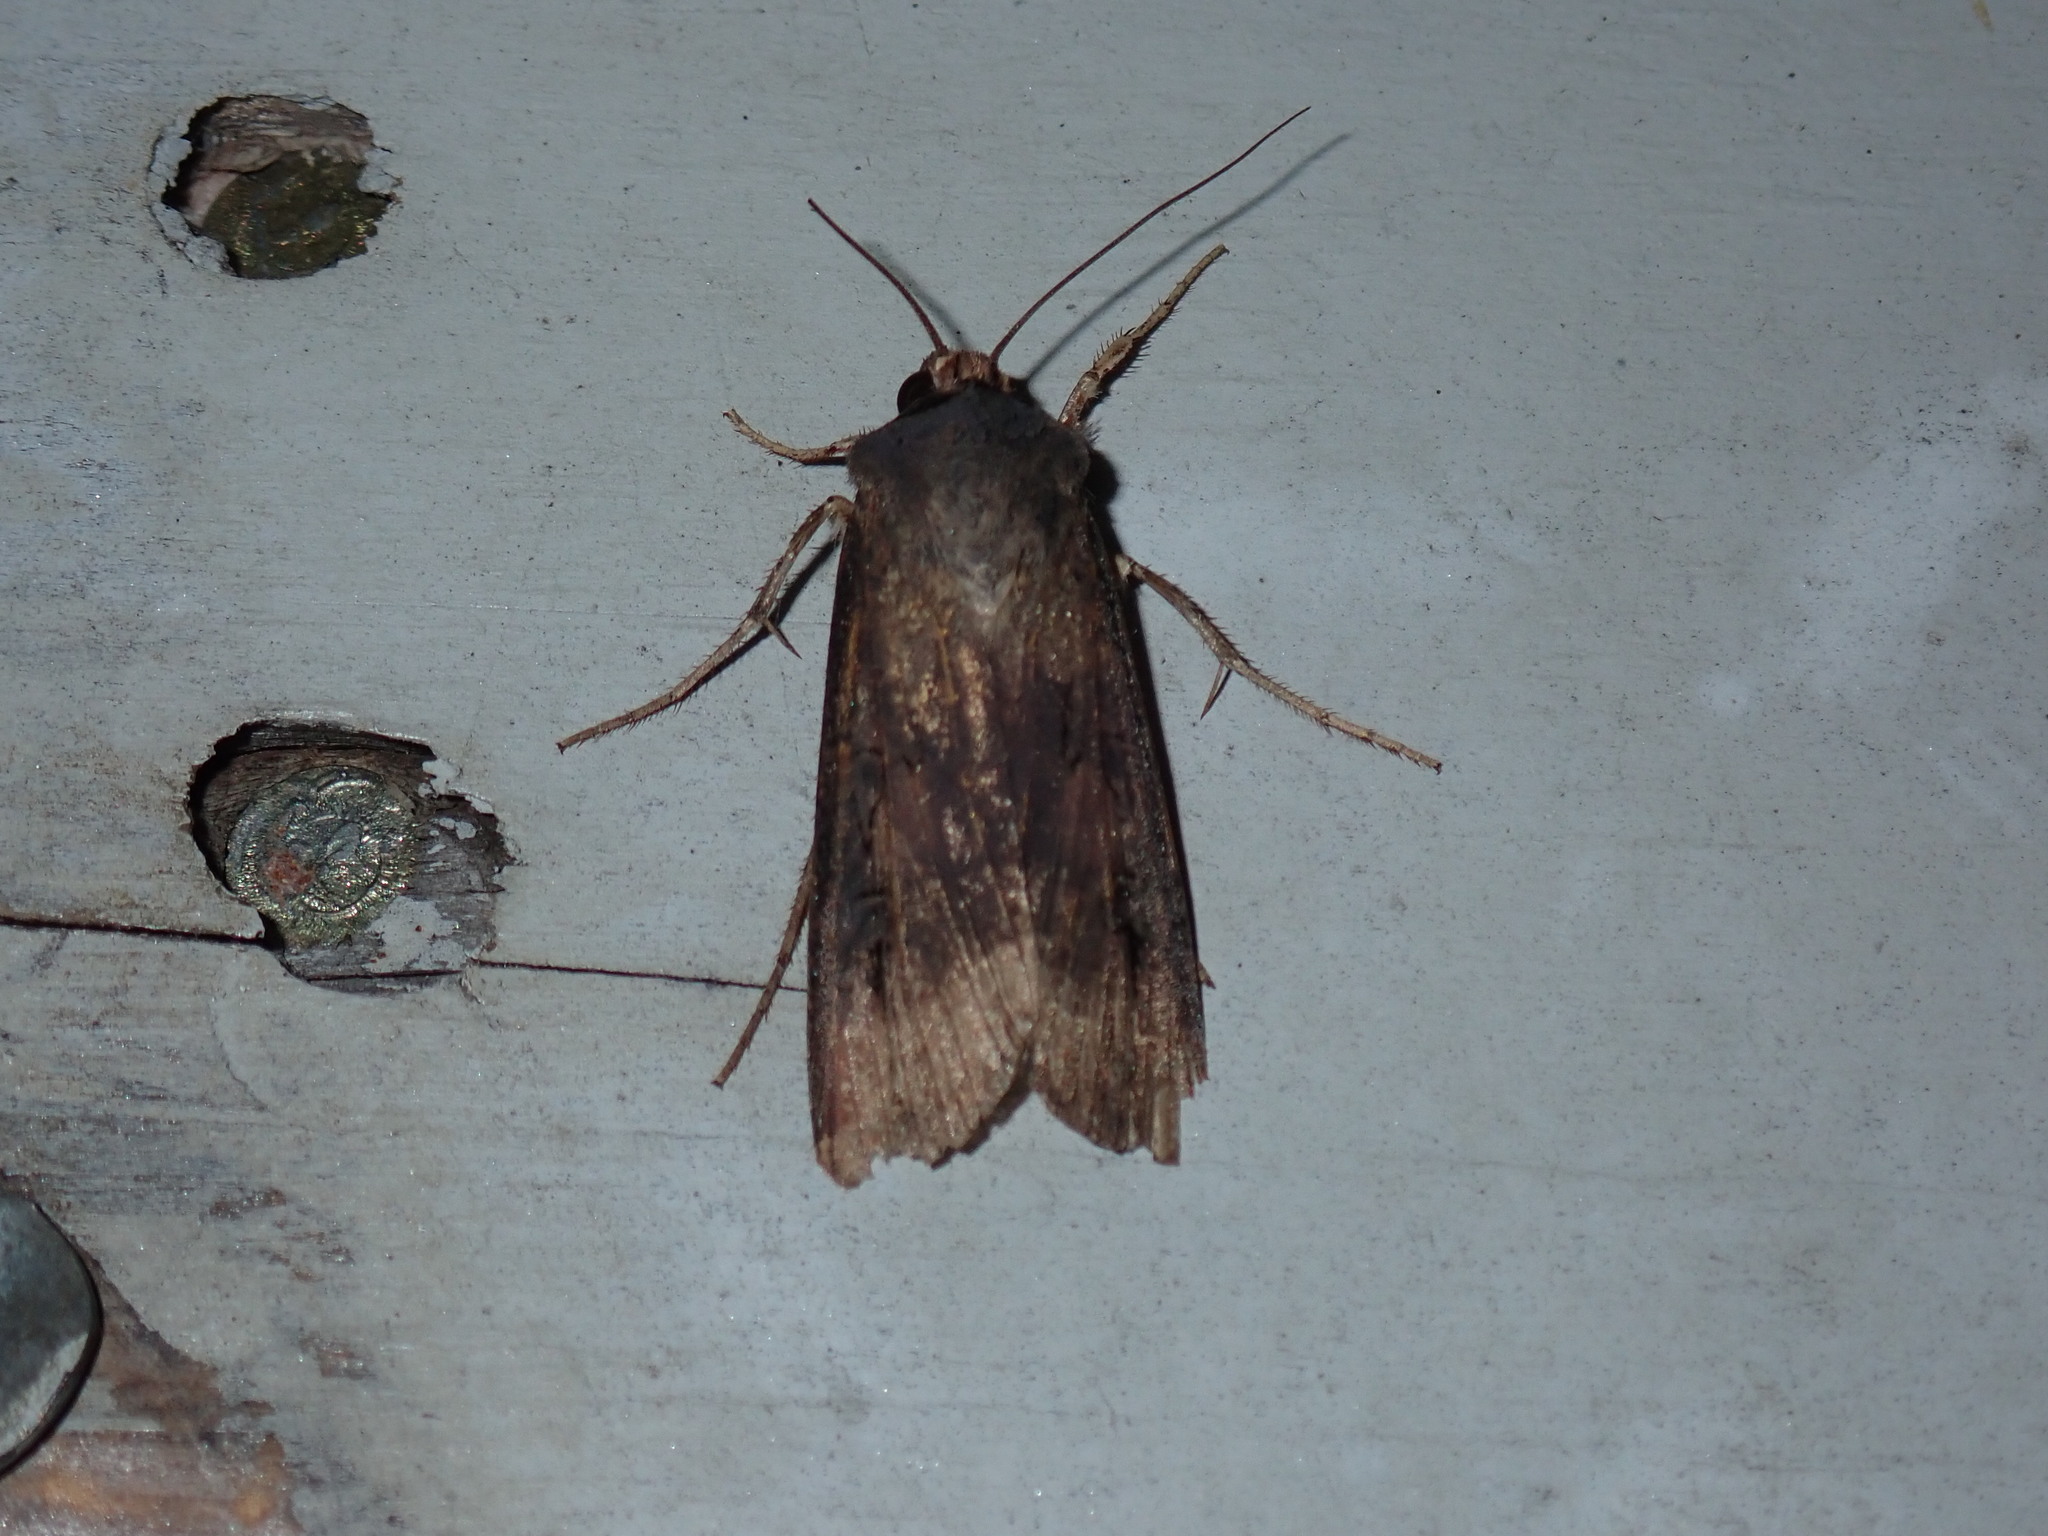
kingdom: Animalia
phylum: Arthropoda
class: Insecta
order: Lepidoptera
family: Noctuidae
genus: Agrotis
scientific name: Agrotis ipsilon
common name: Dark sword-grass
